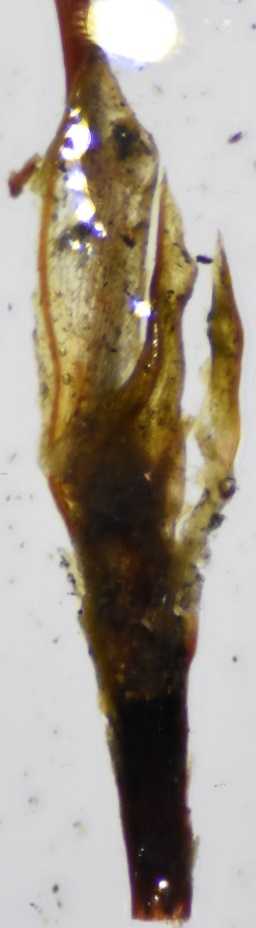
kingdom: Plantae
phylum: Bryophyta
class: Bryopsida
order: Funariales
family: Funariaceae
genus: Funaria
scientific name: Funaria hygrometrica
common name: Common cord moss
